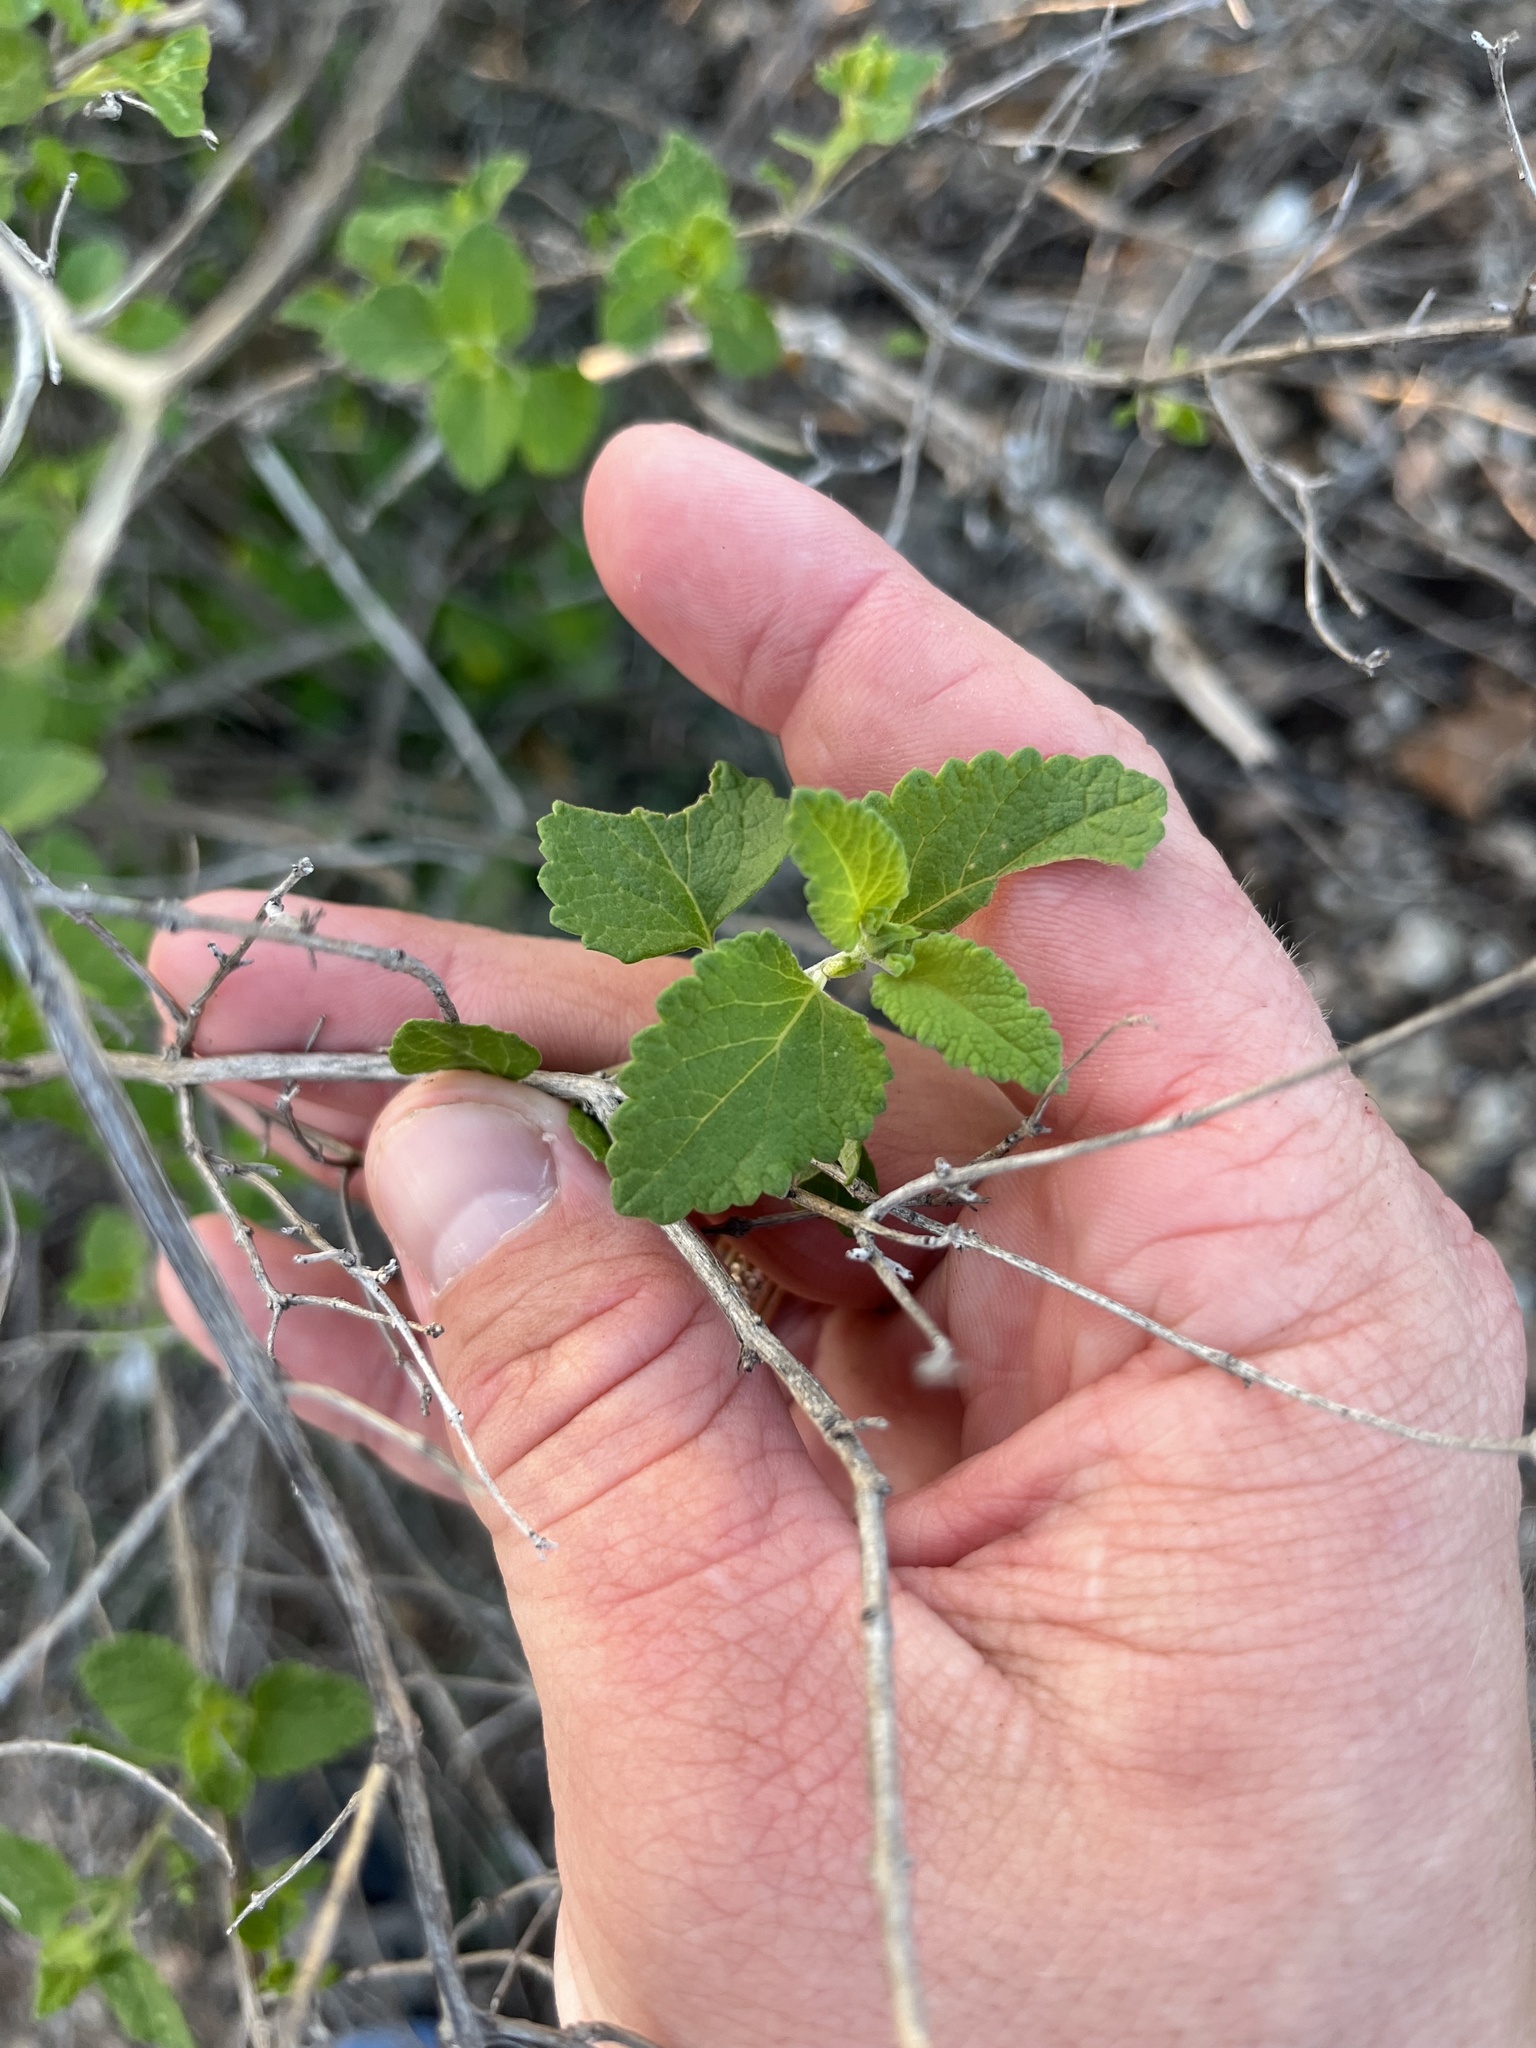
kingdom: Plantae
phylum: Tracheophyta
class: Magnoliopsida
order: Lamiales
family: Lamiaceae
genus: Salvia
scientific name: Salvia ballotiflora
